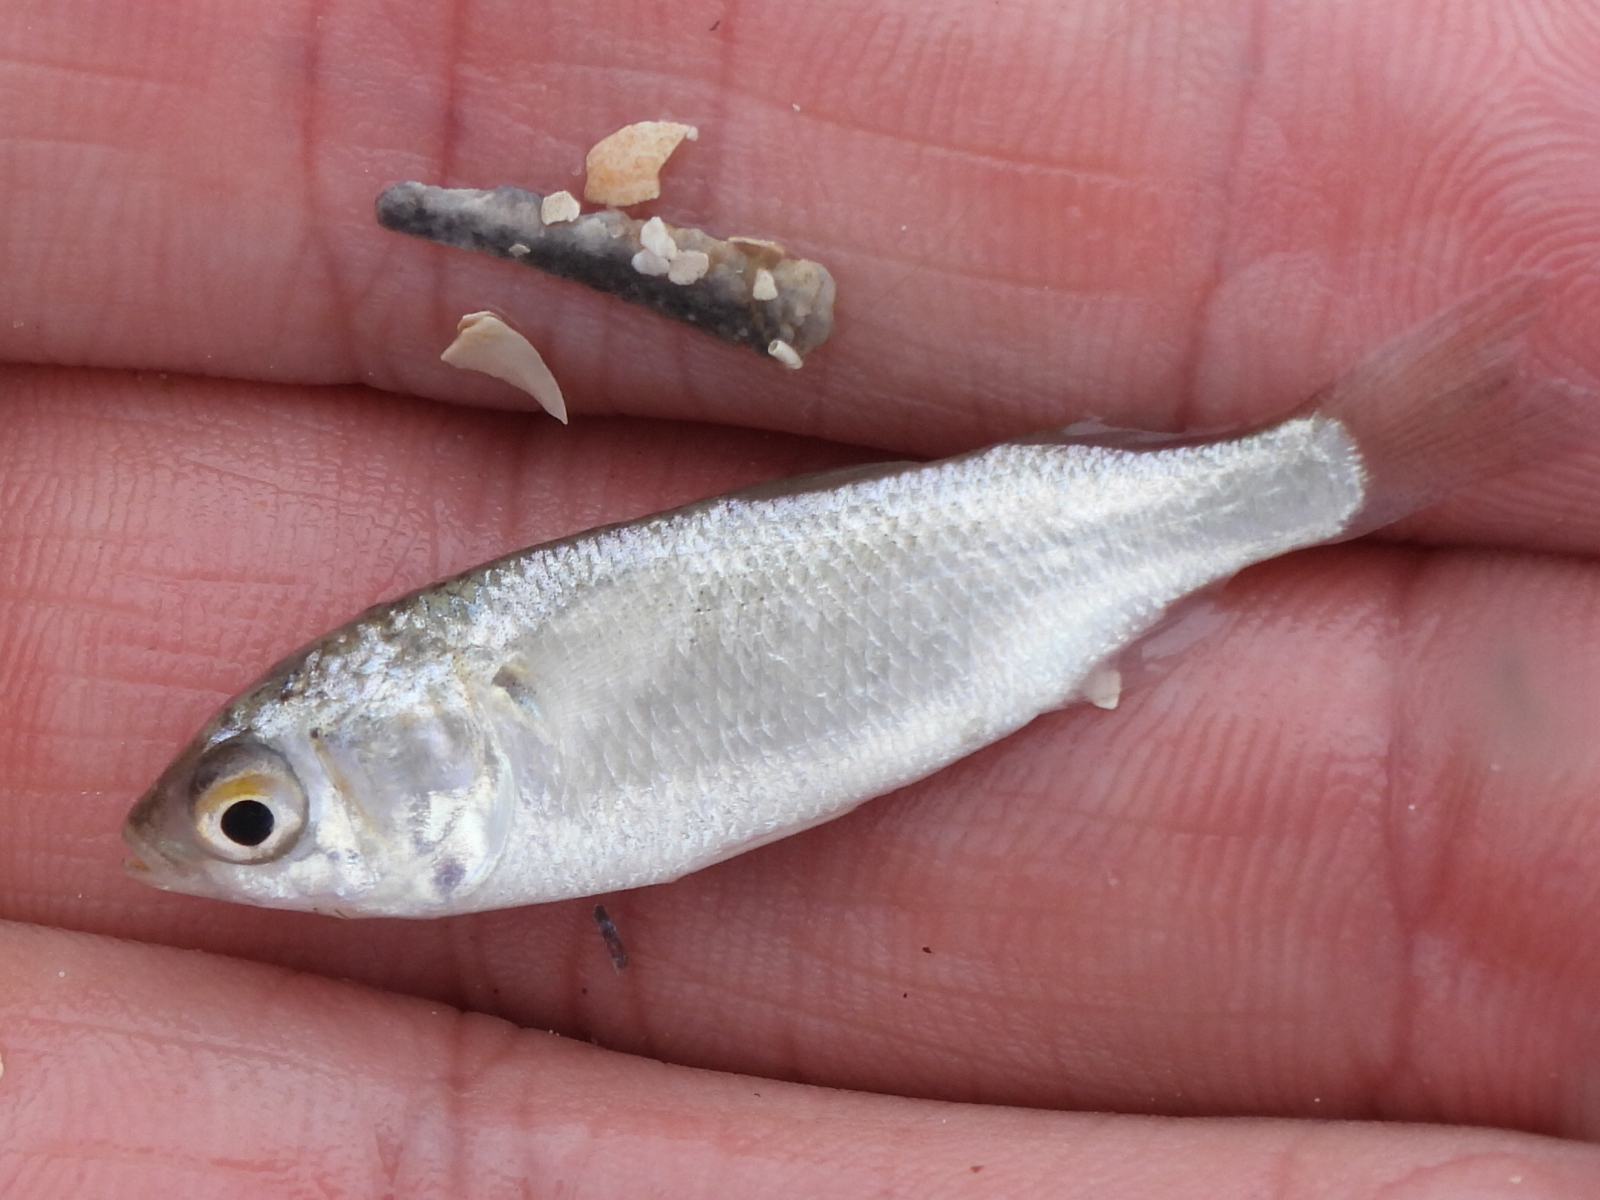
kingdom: Animalia
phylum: Chordata
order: Mugiliformes
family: Mugilidae
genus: Mugil
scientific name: Mugil curema
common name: White mullet
